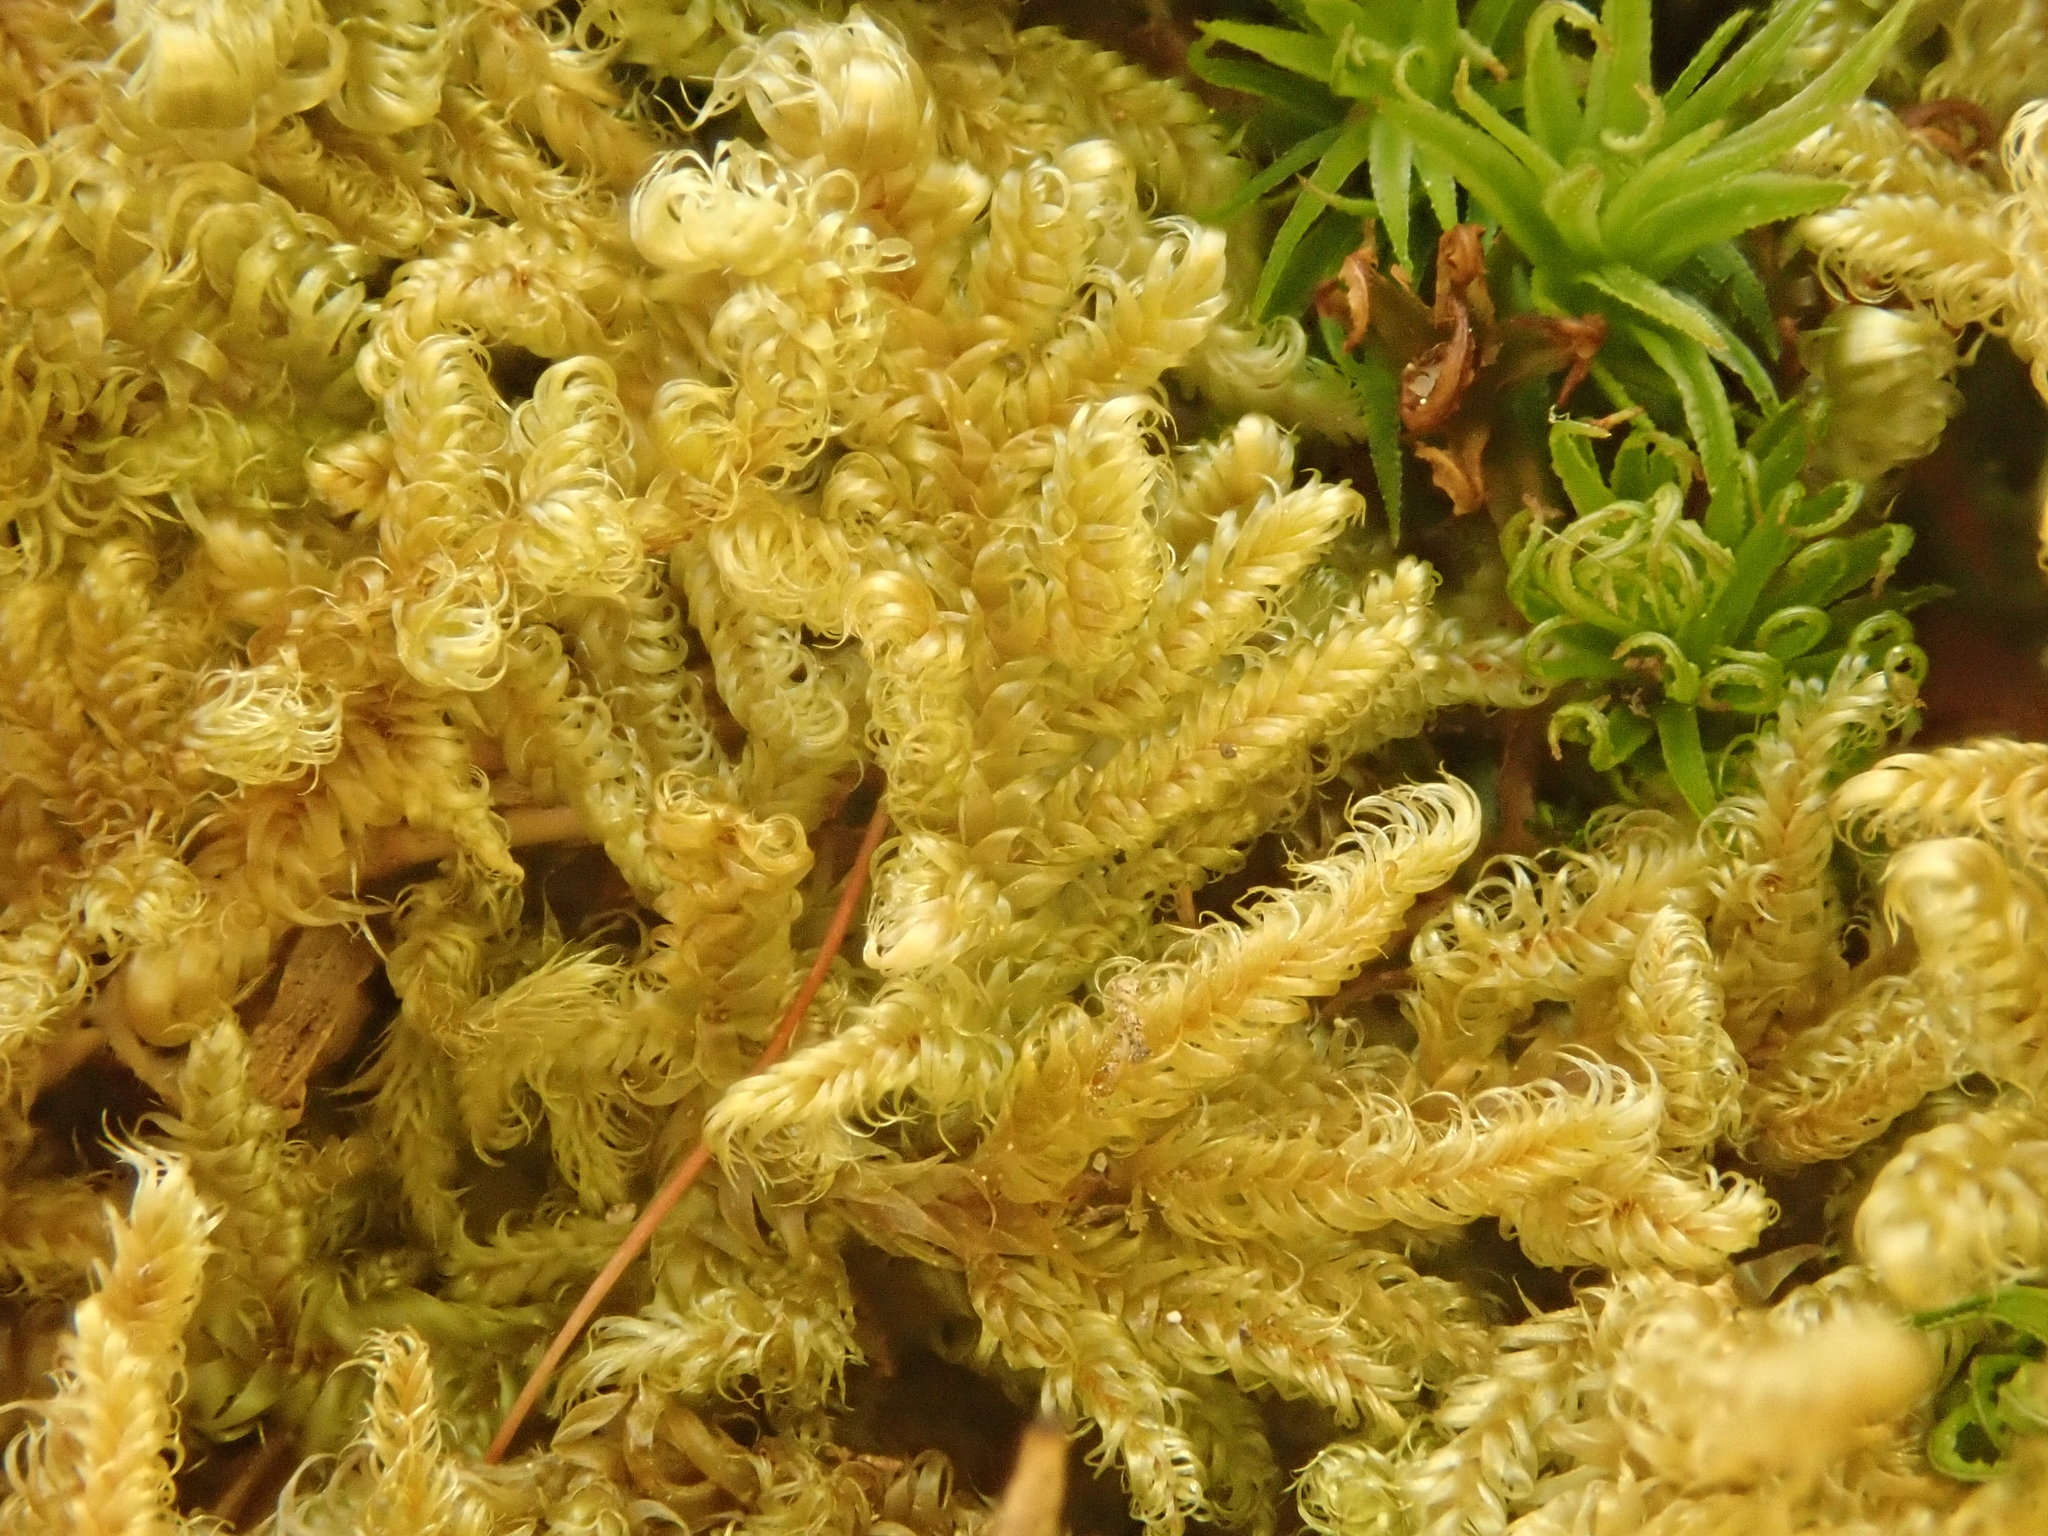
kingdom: Plantae
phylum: Bryophyta
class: Bryopsida
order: Hypnales
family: Callicladiaceae
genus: Callicladium
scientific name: Callicladium imponens
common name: Brocade moss
